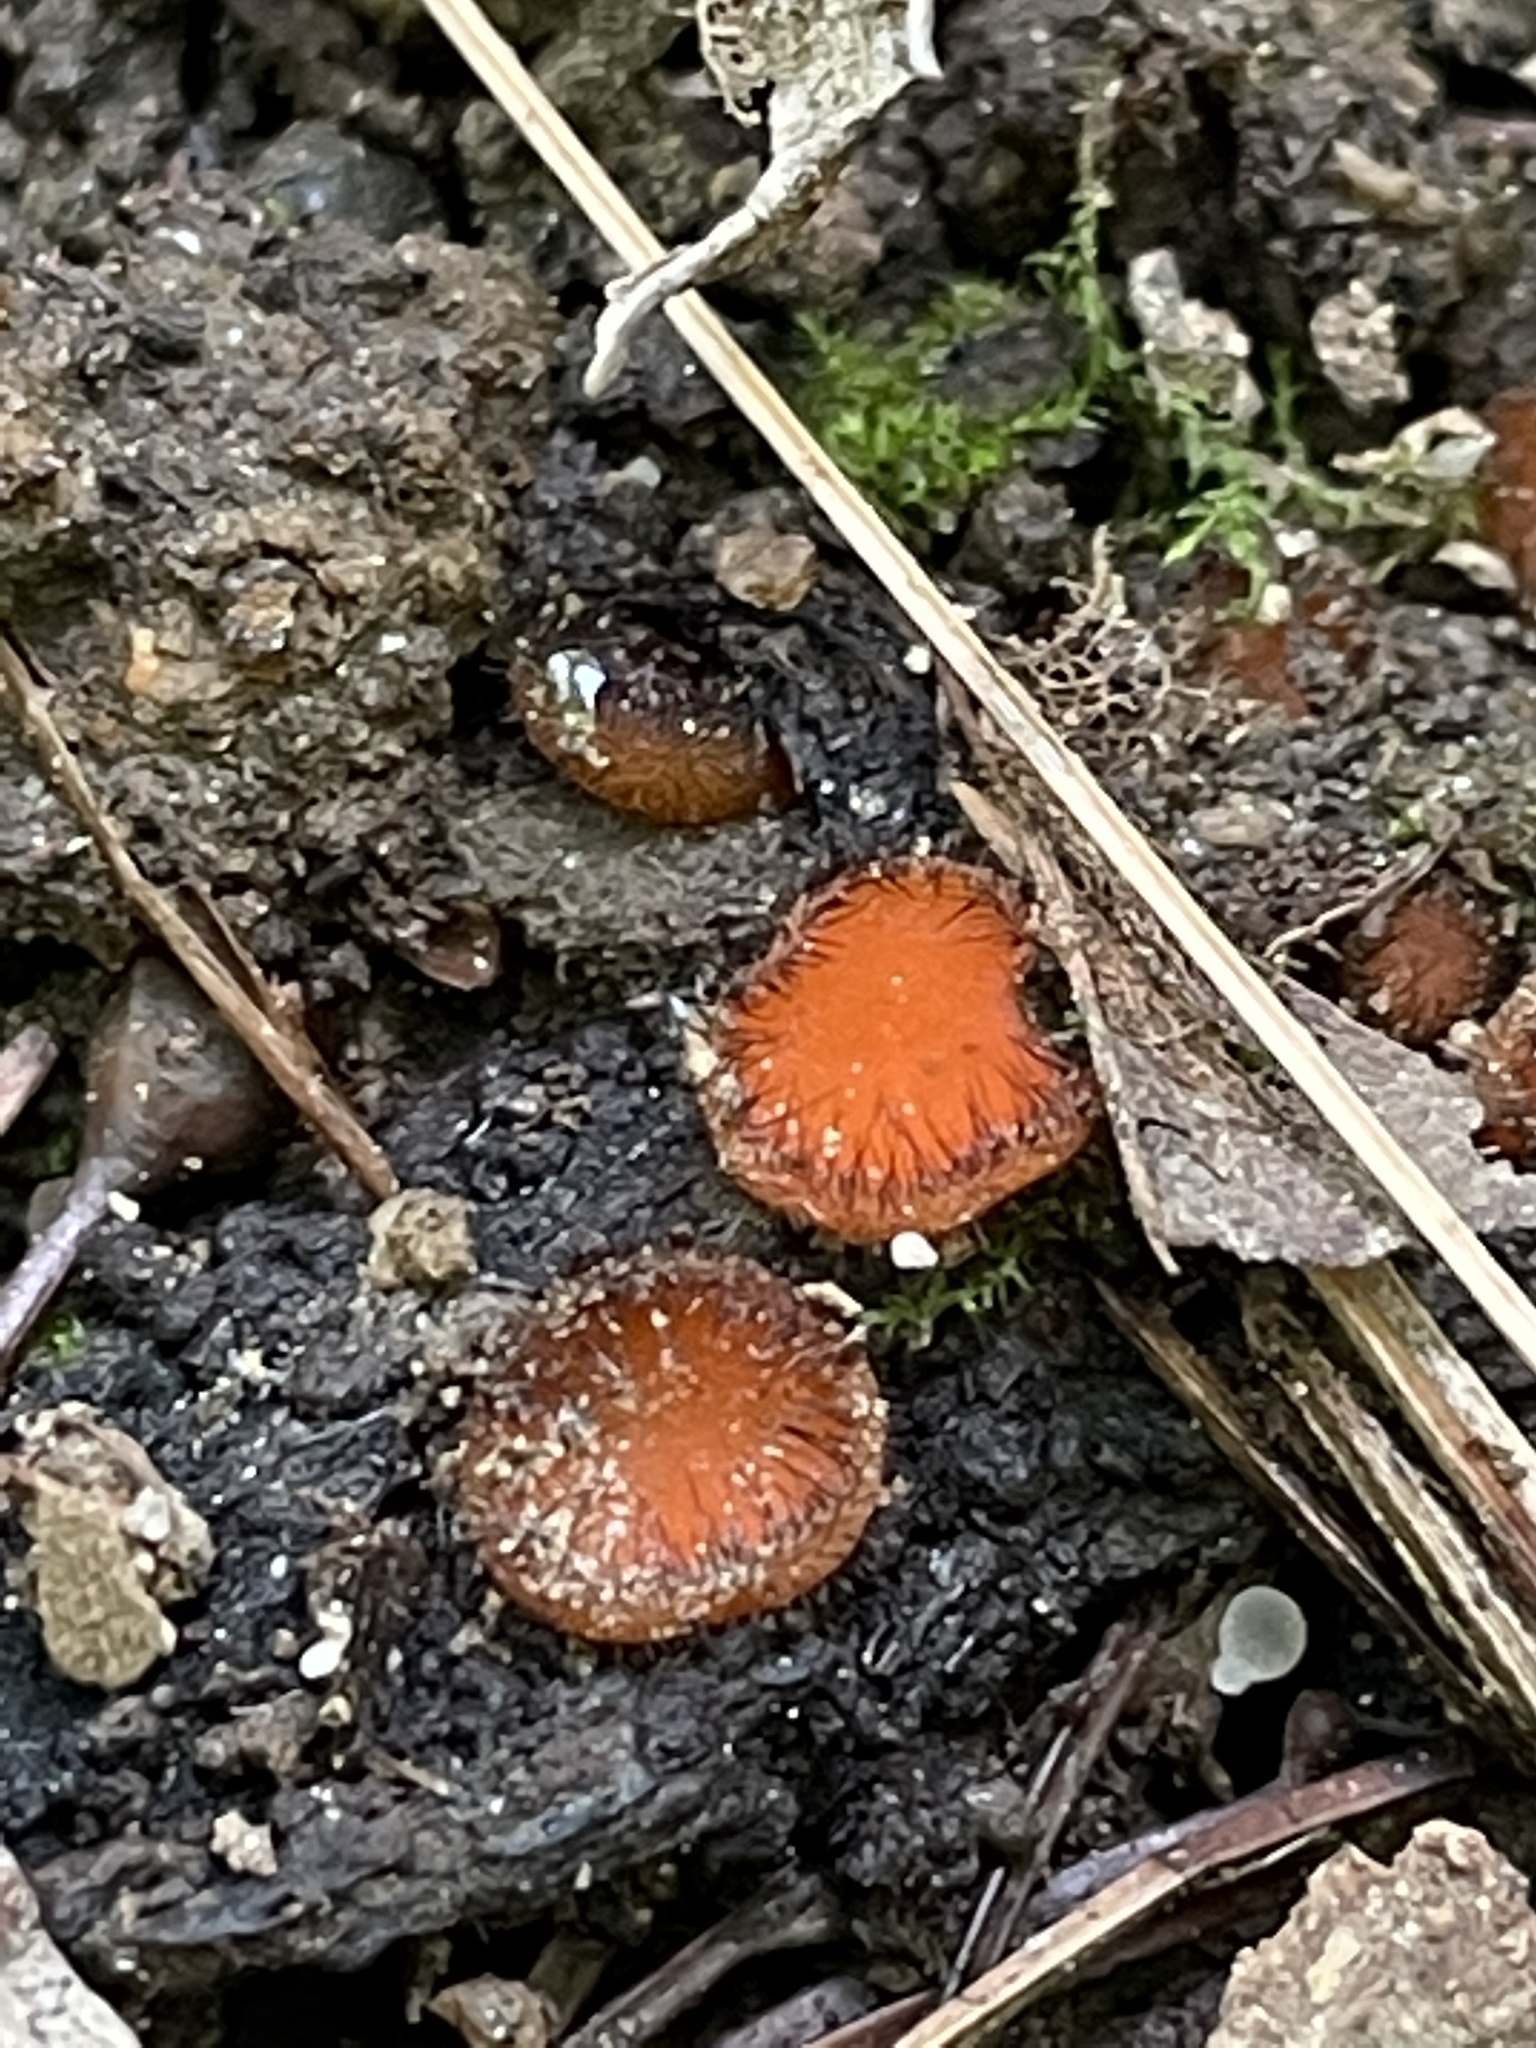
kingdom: Fungi
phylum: Ascomycota
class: Pezizomycetes
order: Pezizales
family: Pyronemataceae
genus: Scutellinia
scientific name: Scutellinia
